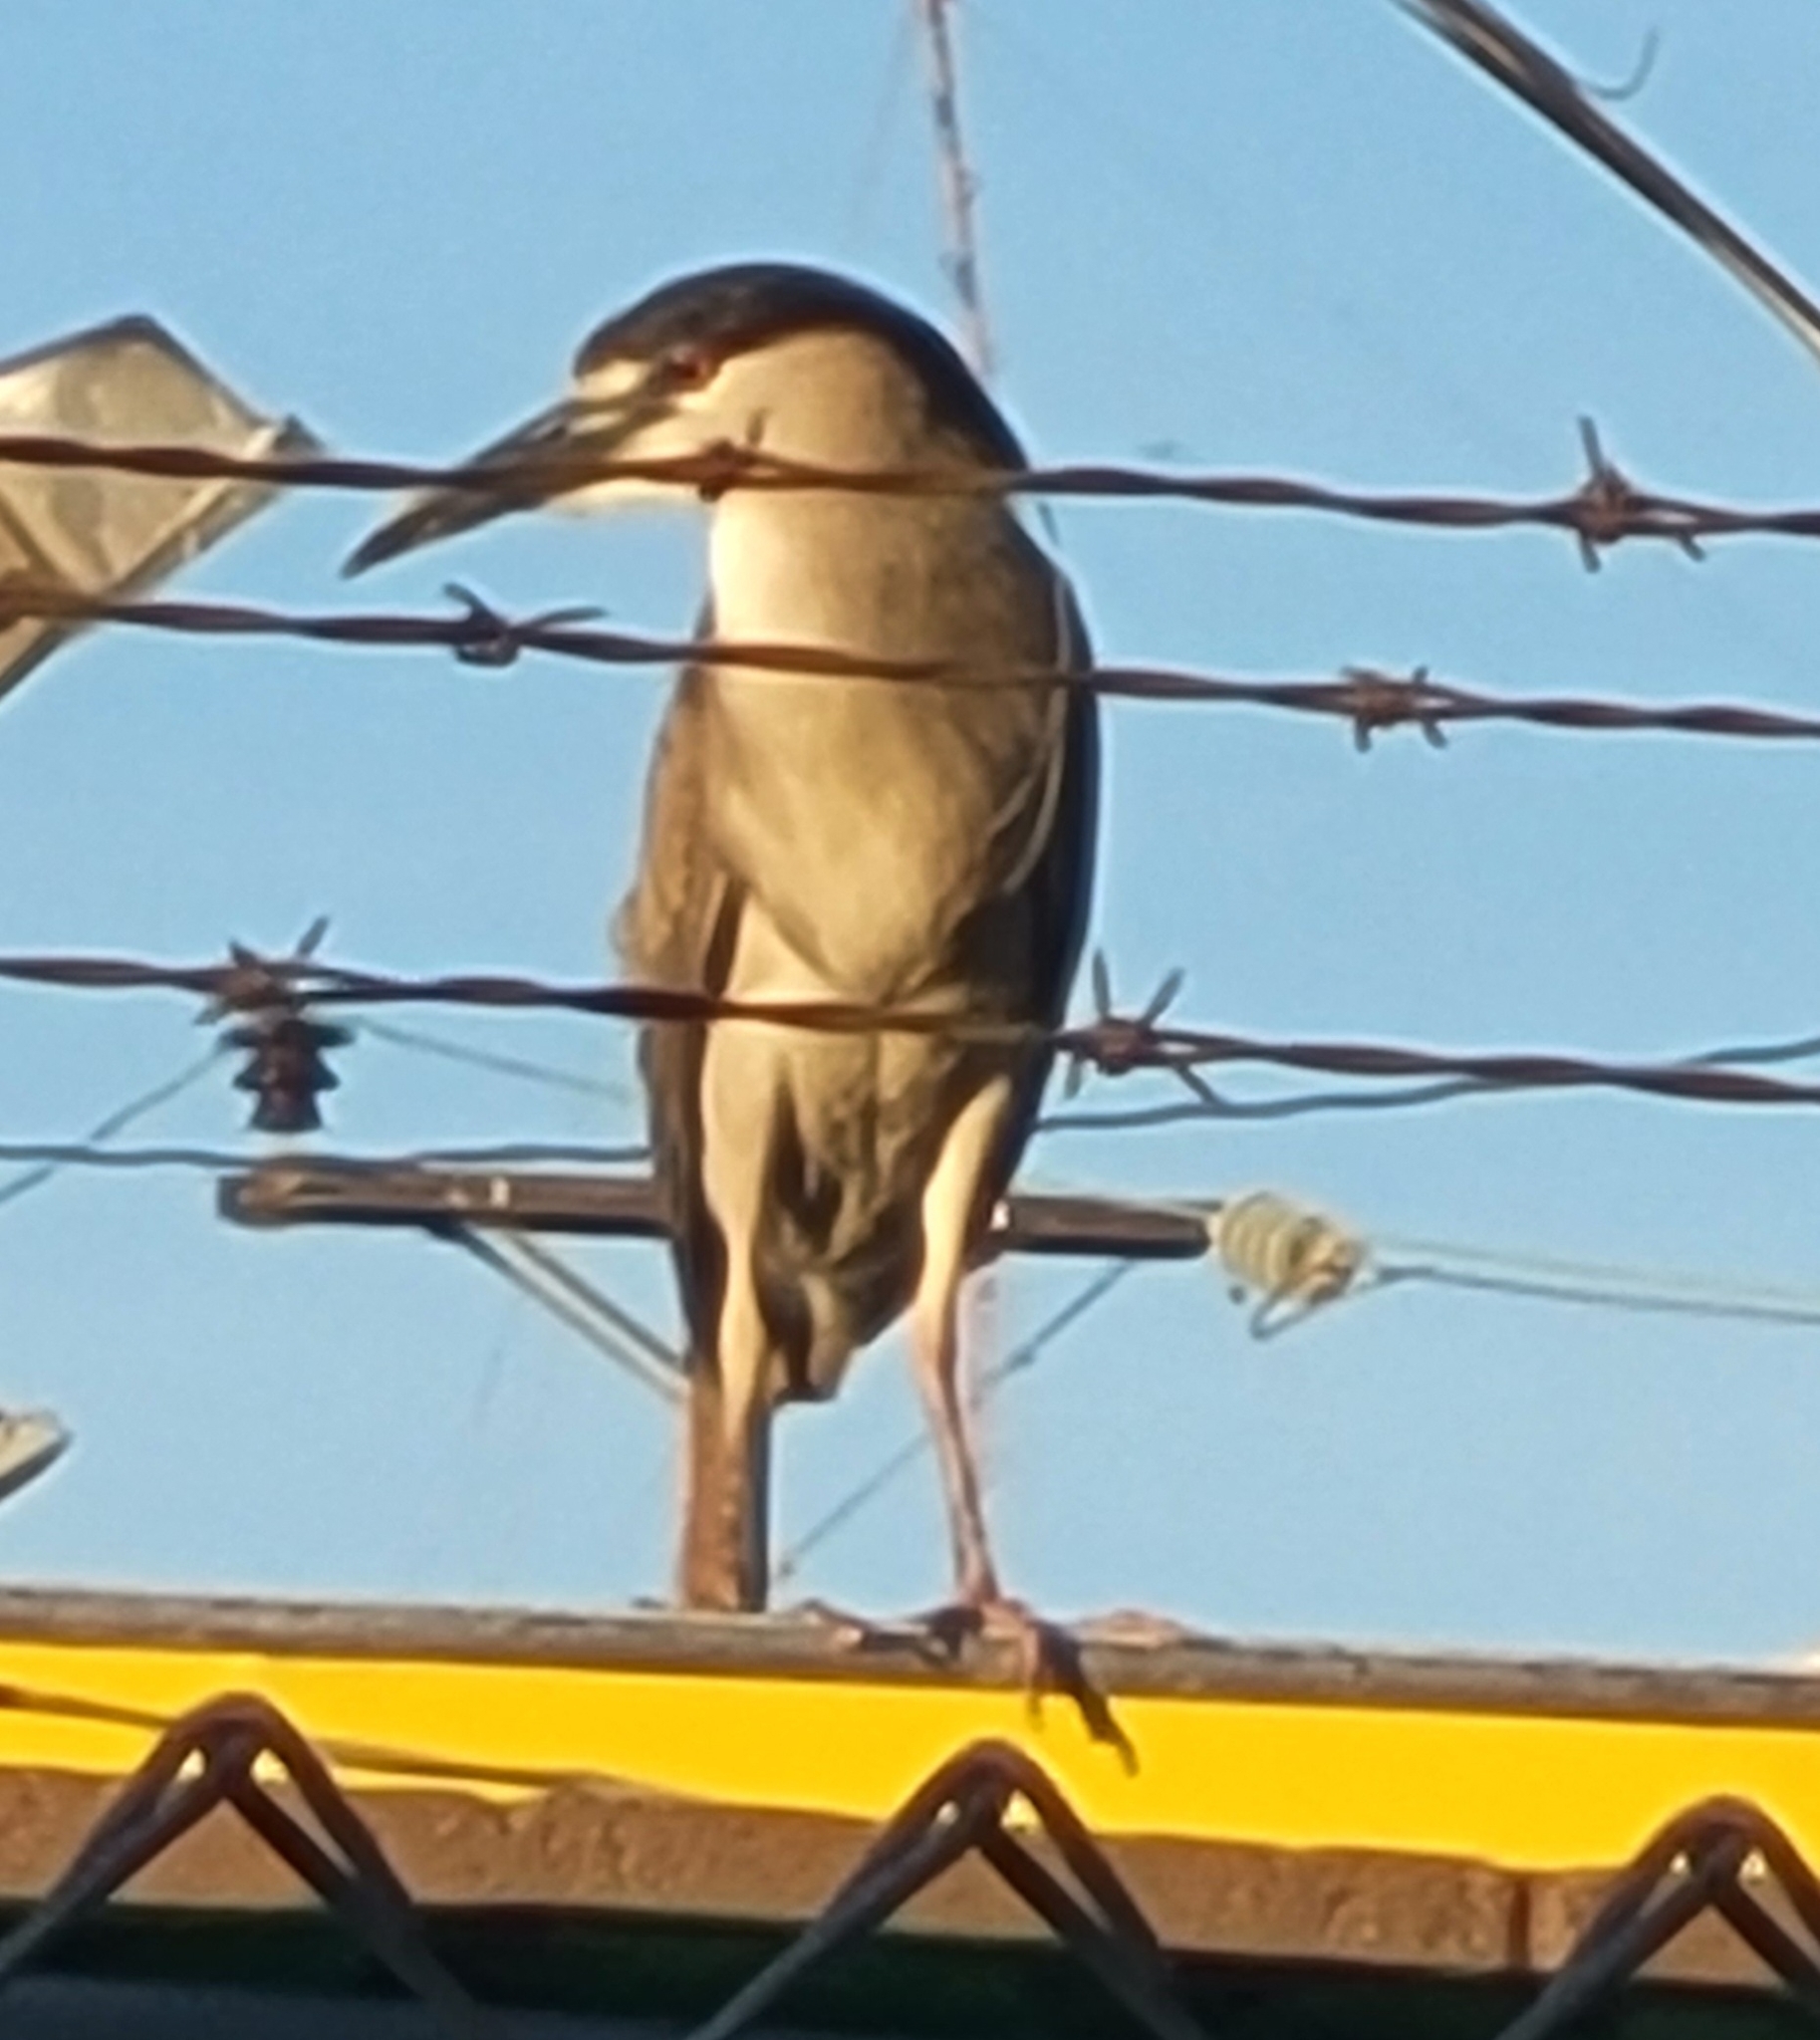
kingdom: Animalia
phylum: Chordata
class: Aves
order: Pelecaniformes
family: Ardeidae
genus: Nycticorax
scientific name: Nycticorax nycticorax
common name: Black-crowned night heron
